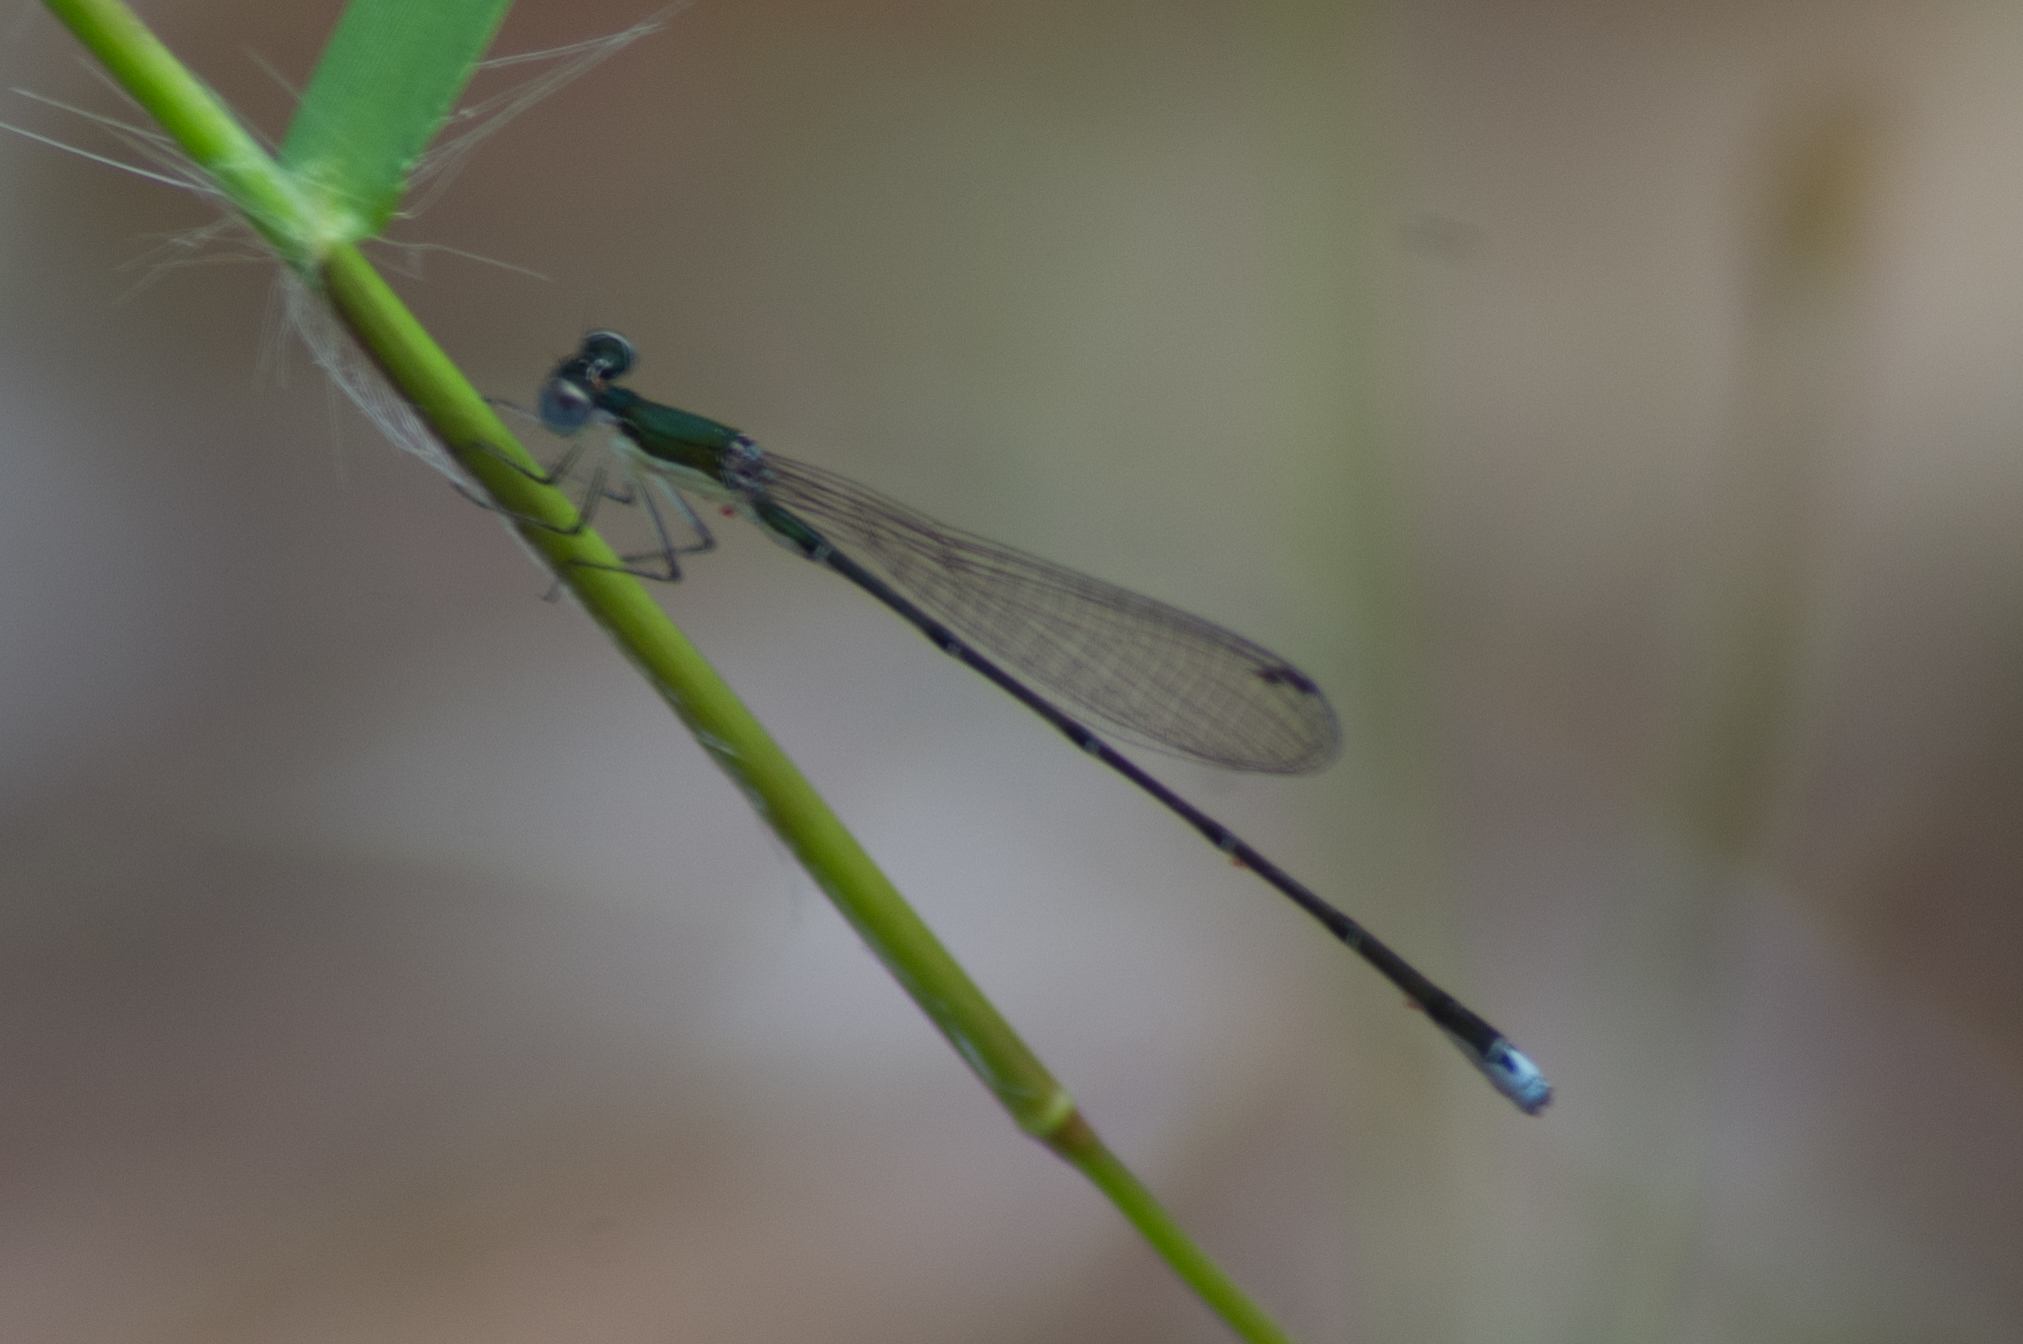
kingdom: Animalia
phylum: Arthropoda
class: Insecta
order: Odonata
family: Coenagrionidae
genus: Nehalennia
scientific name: Nehalennia integricollis
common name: Southern sprite
